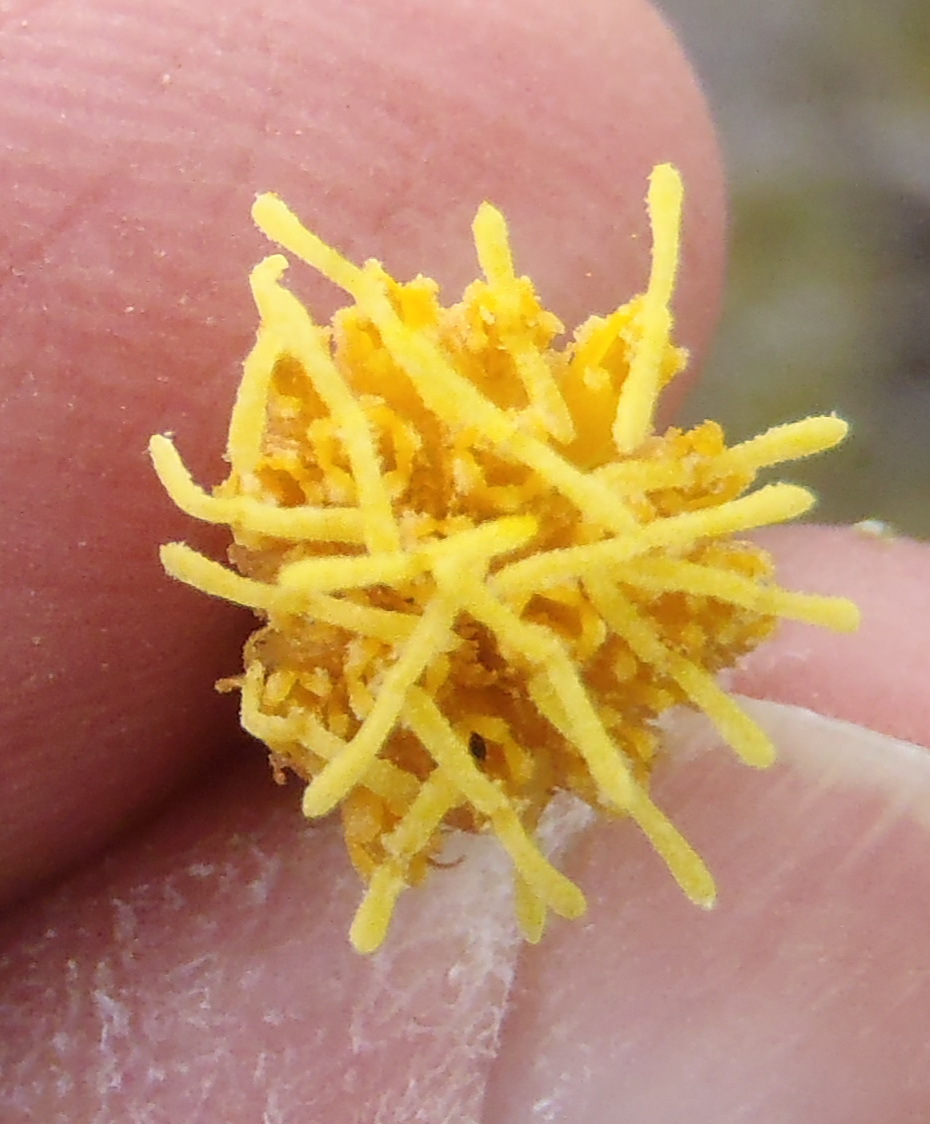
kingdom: Plantae
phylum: Tracheophyta
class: Magnoliopsida
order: Asterales
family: Asteraceae
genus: Pegolettia
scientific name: Pegolettia baccaridifolia
